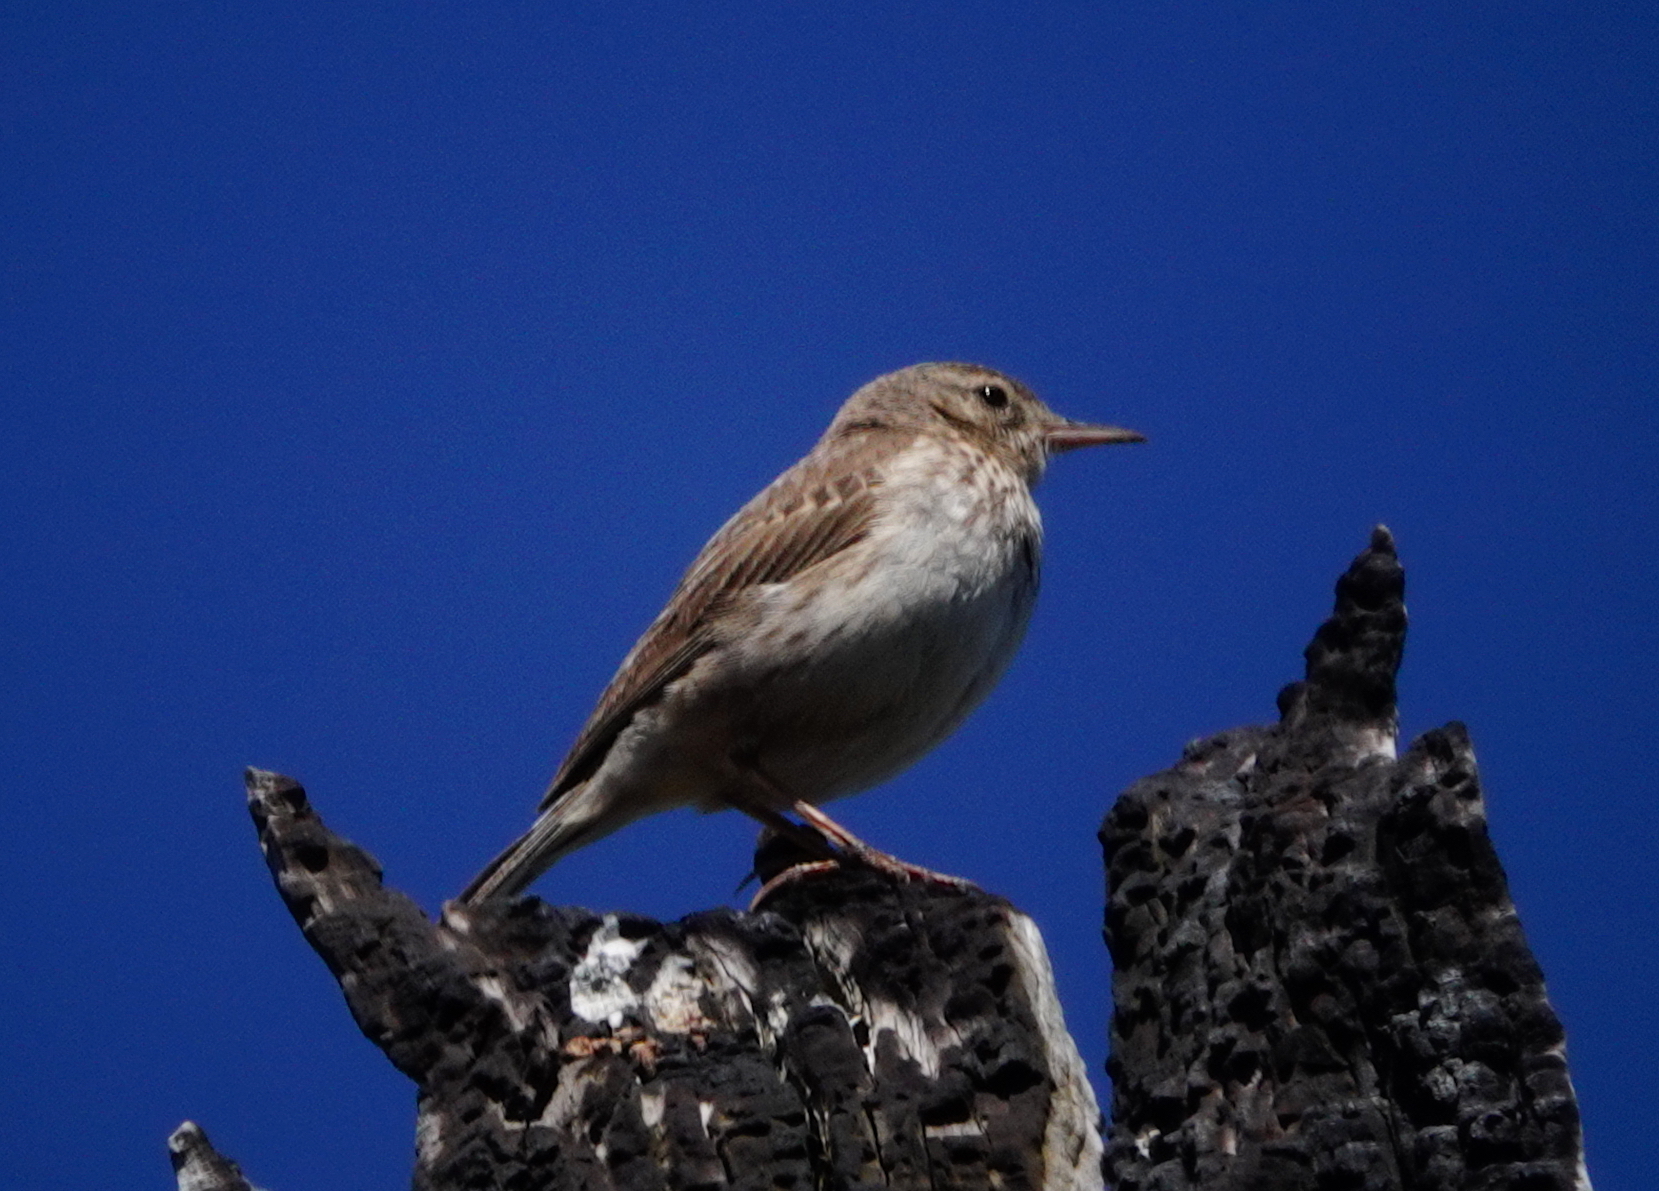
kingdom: Animalia
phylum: Chordata
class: Aves
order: Passeriformes
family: Motacillidae
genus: Anthus
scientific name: Anthus berthelotii
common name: Berthelot's pipit
